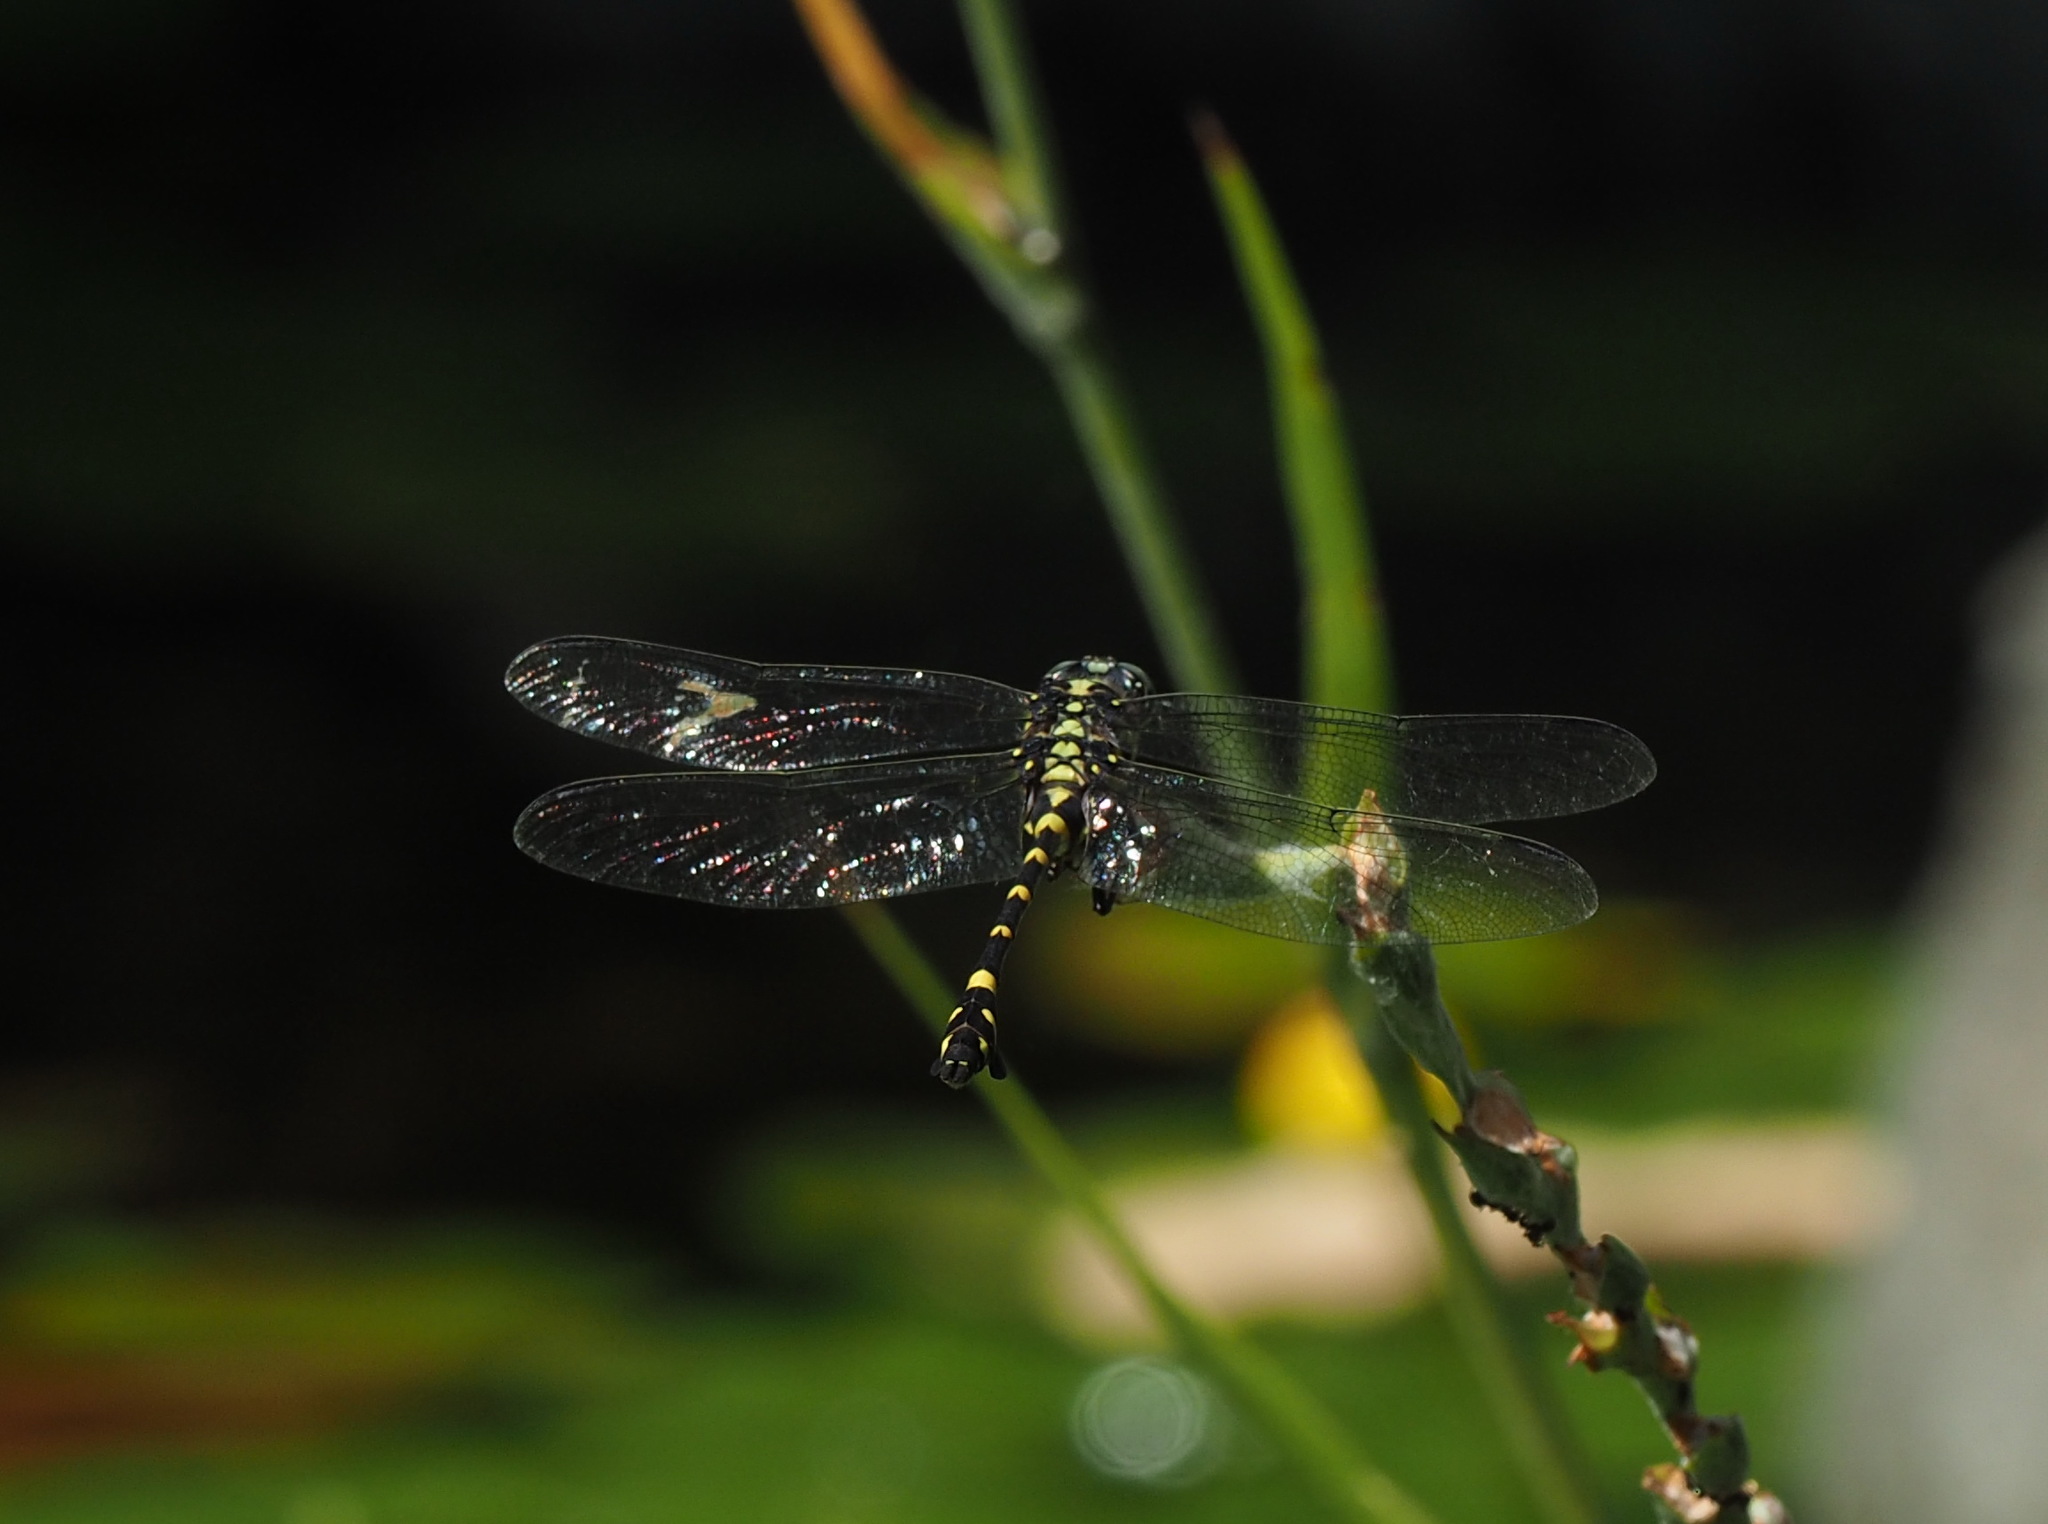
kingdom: Animalia
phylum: Arthropoda
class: Insecta
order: Odonata
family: Gomphidae
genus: Ictinogomphus
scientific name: Ictinogomphus rapax
